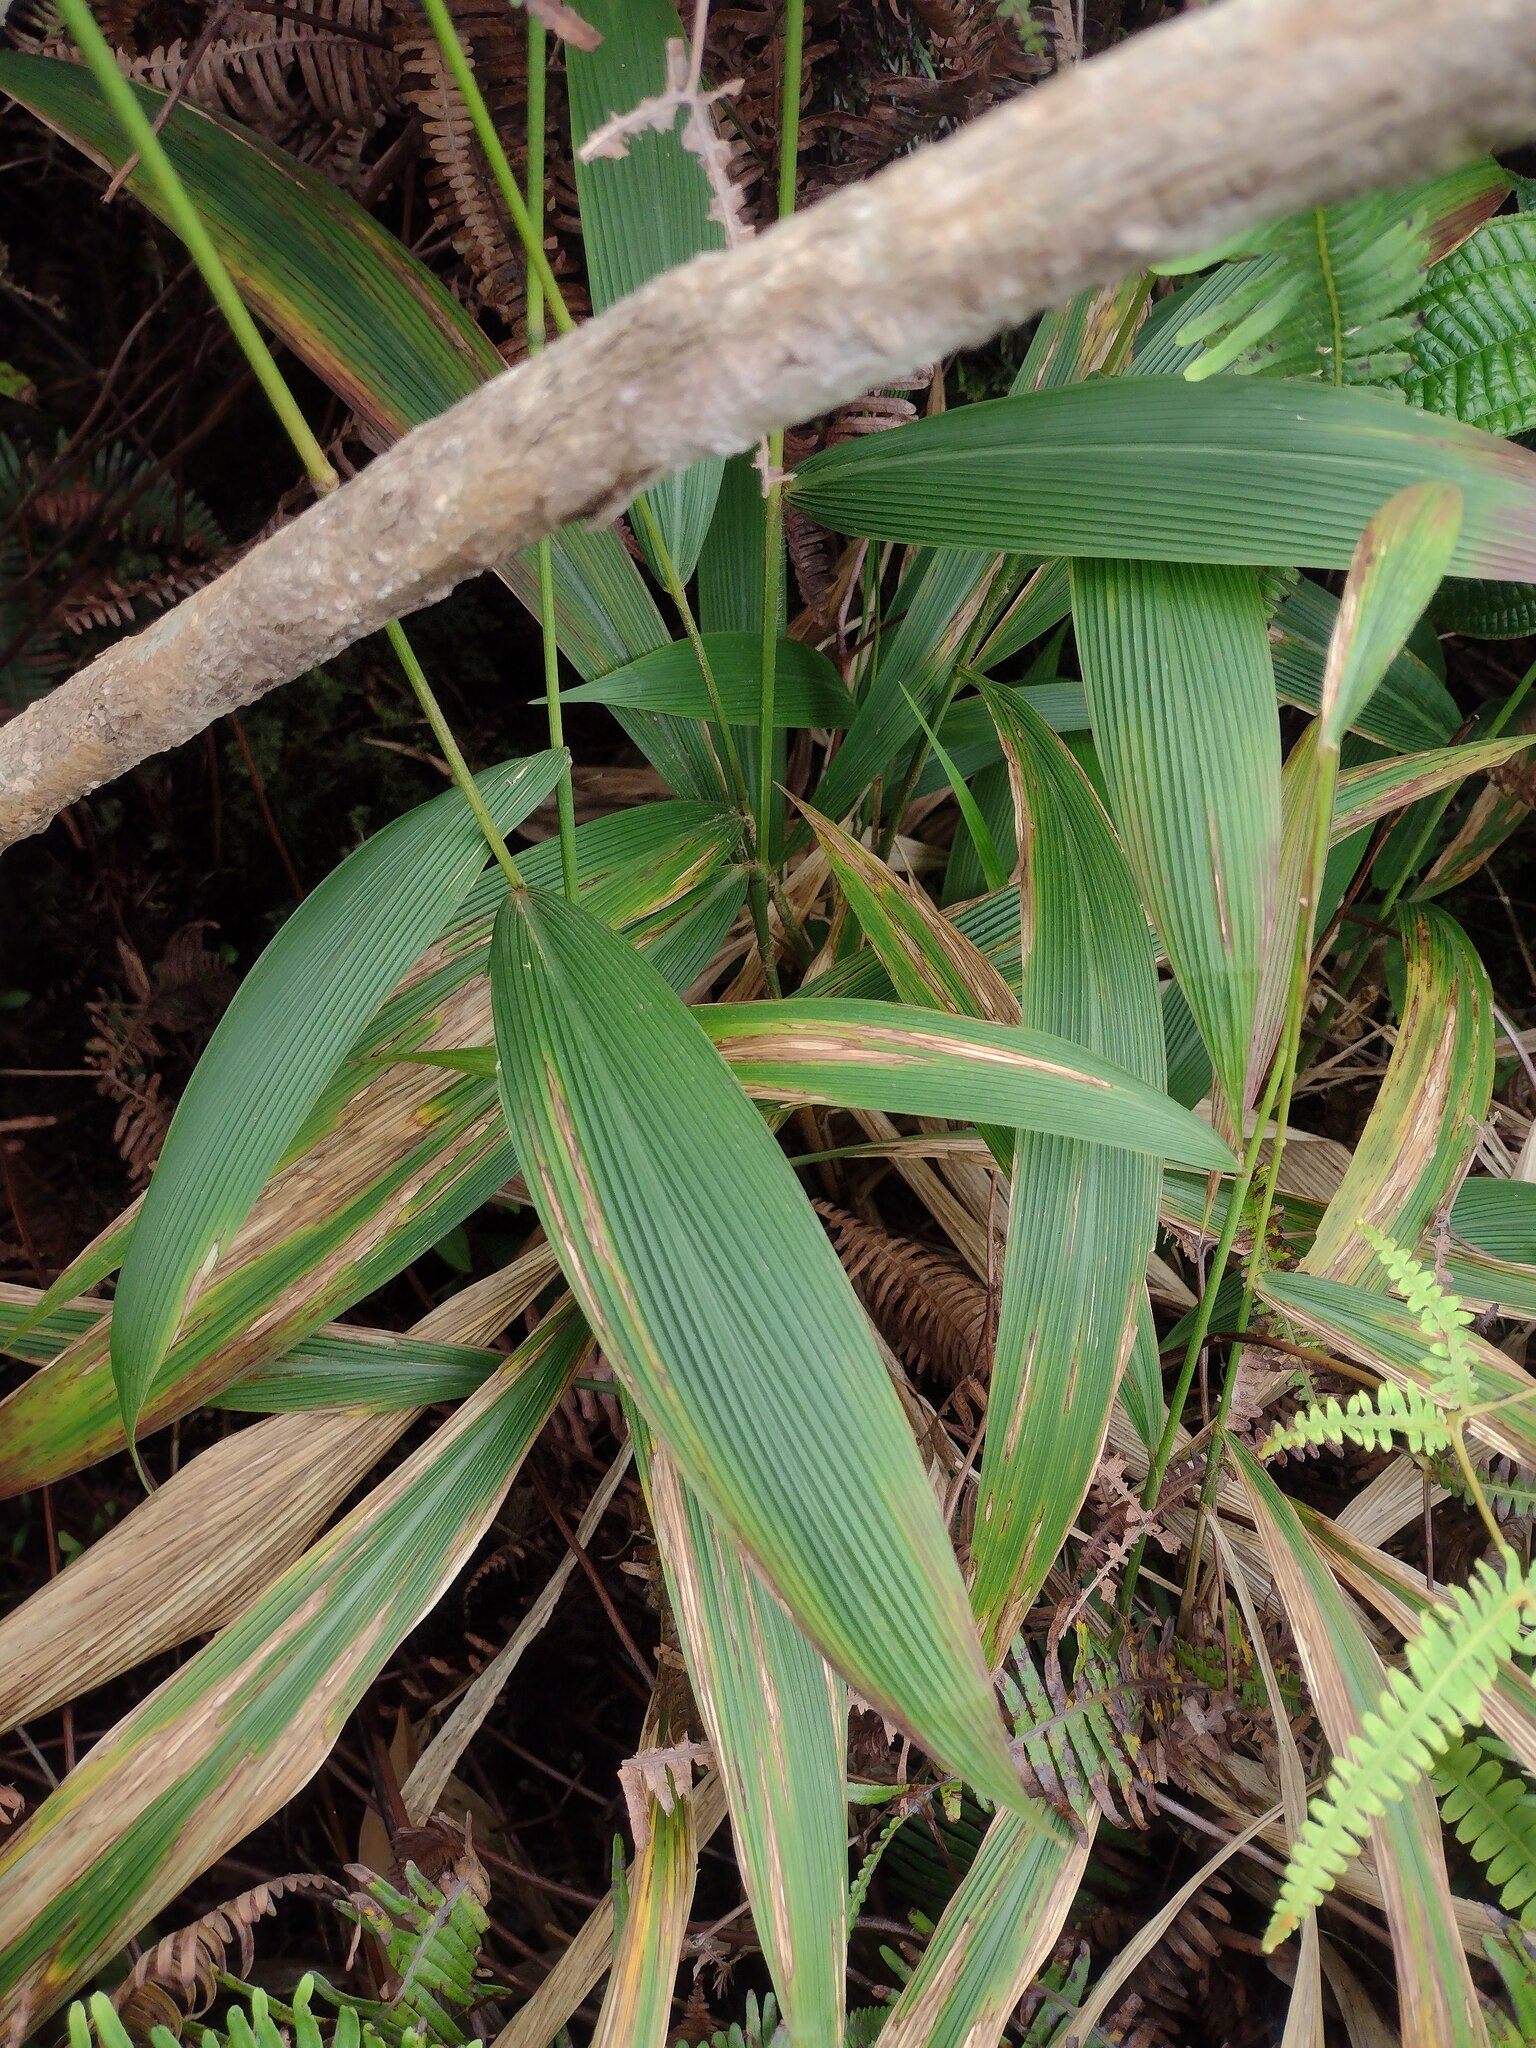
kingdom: Plantae
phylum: Tracheophyta
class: Liliopsida
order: Poales
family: Poaceae
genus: Setaria
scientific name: Setaria palmifolia
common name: Broadleaved bristlegrass
